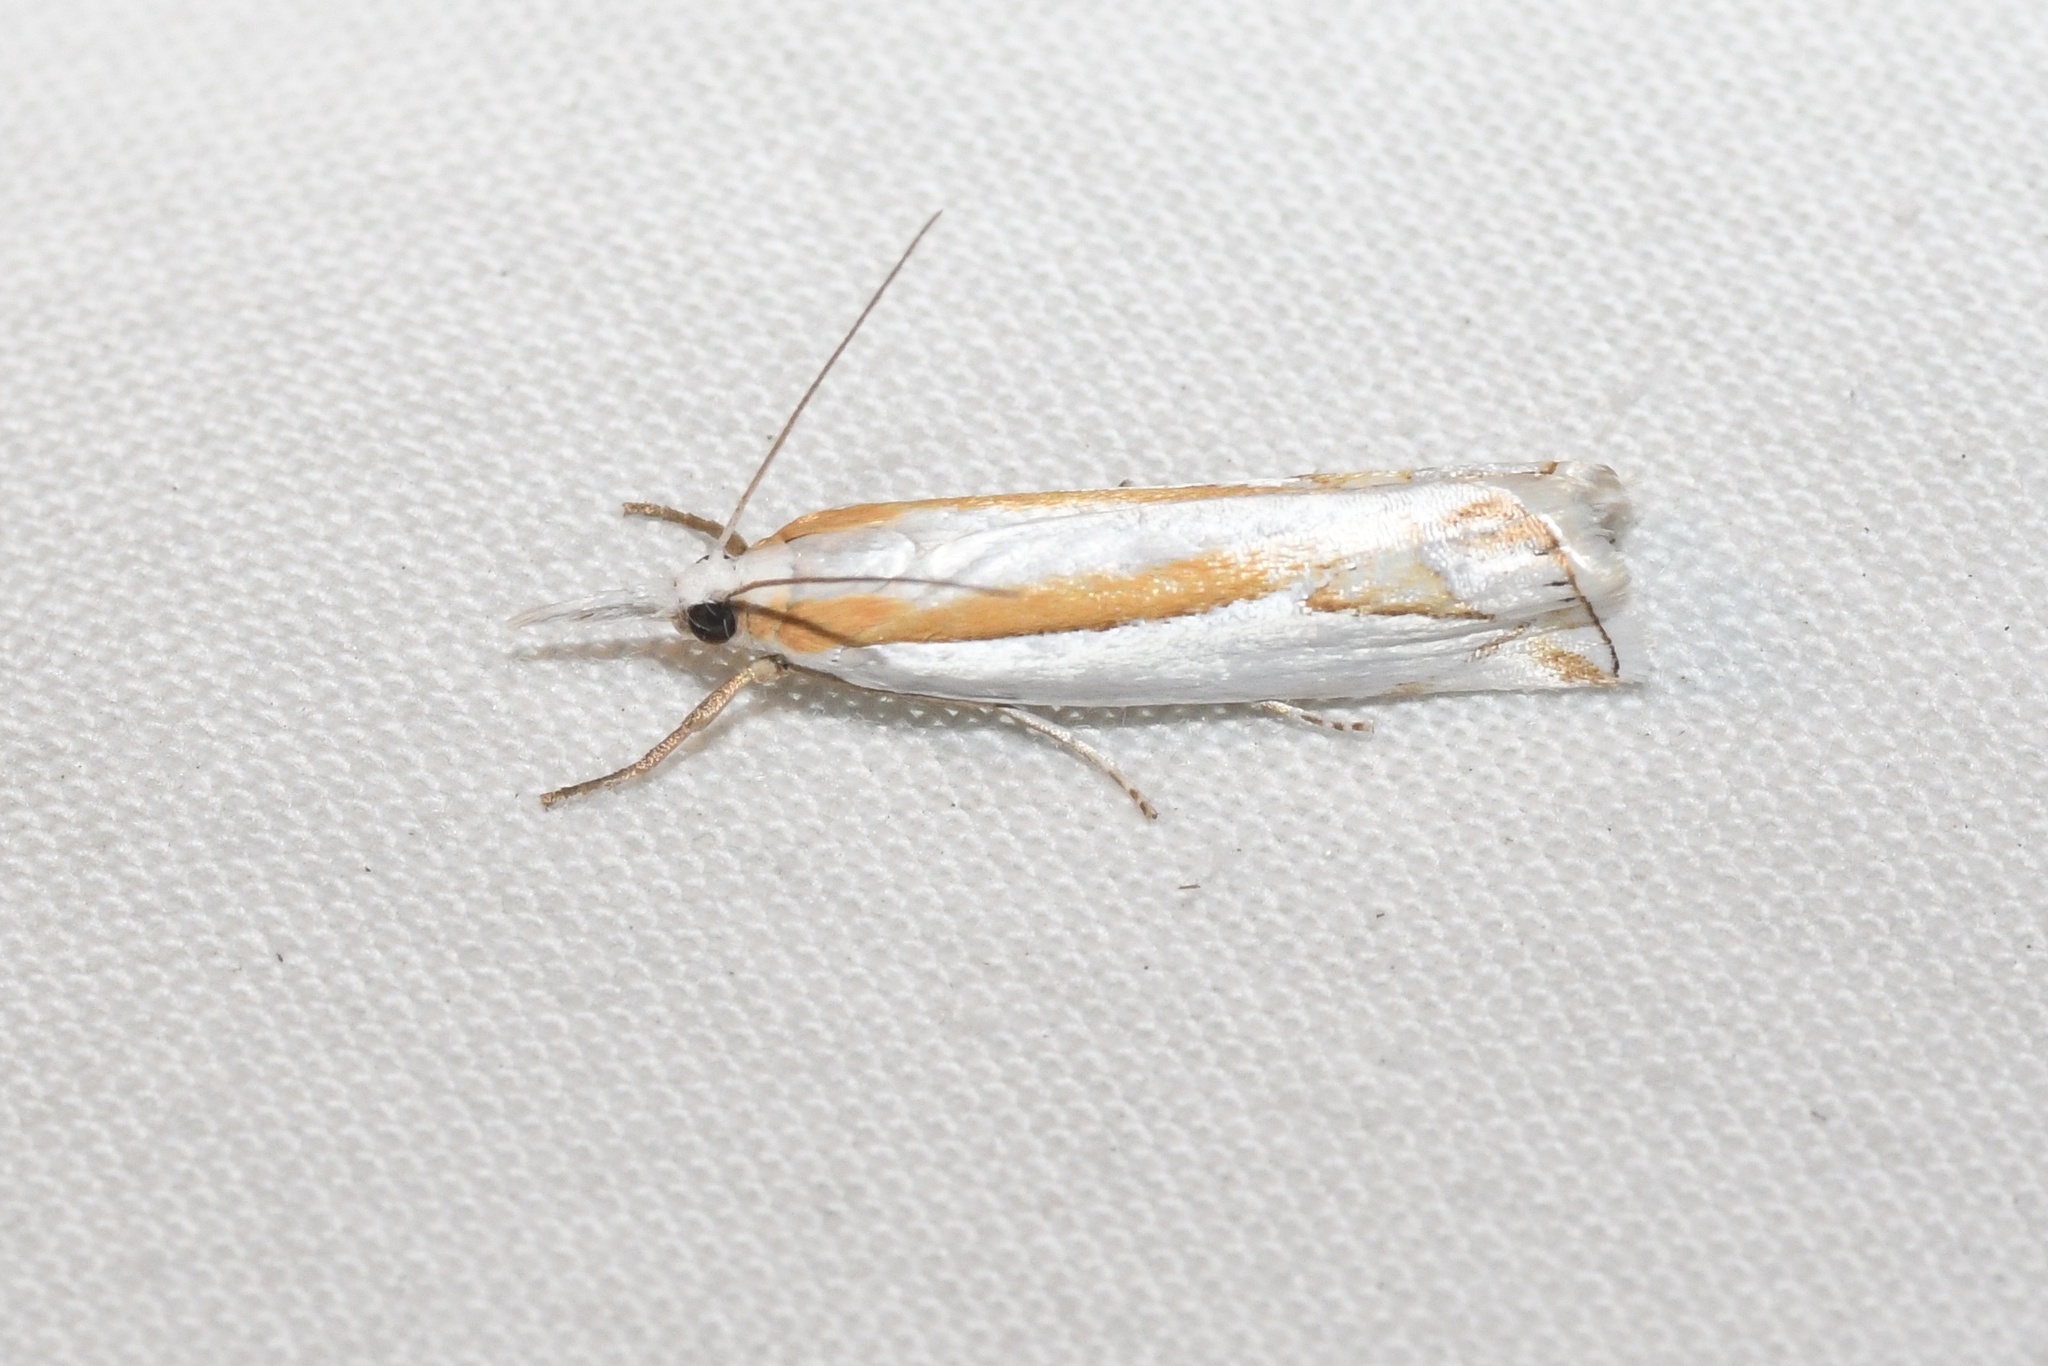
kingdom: Animalia
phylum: Arthropoda
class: Insecta
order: Lepidoptera
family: Crambidae
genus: Crambus
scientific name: Crambus girardellus
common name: Girard's grass-veneer
